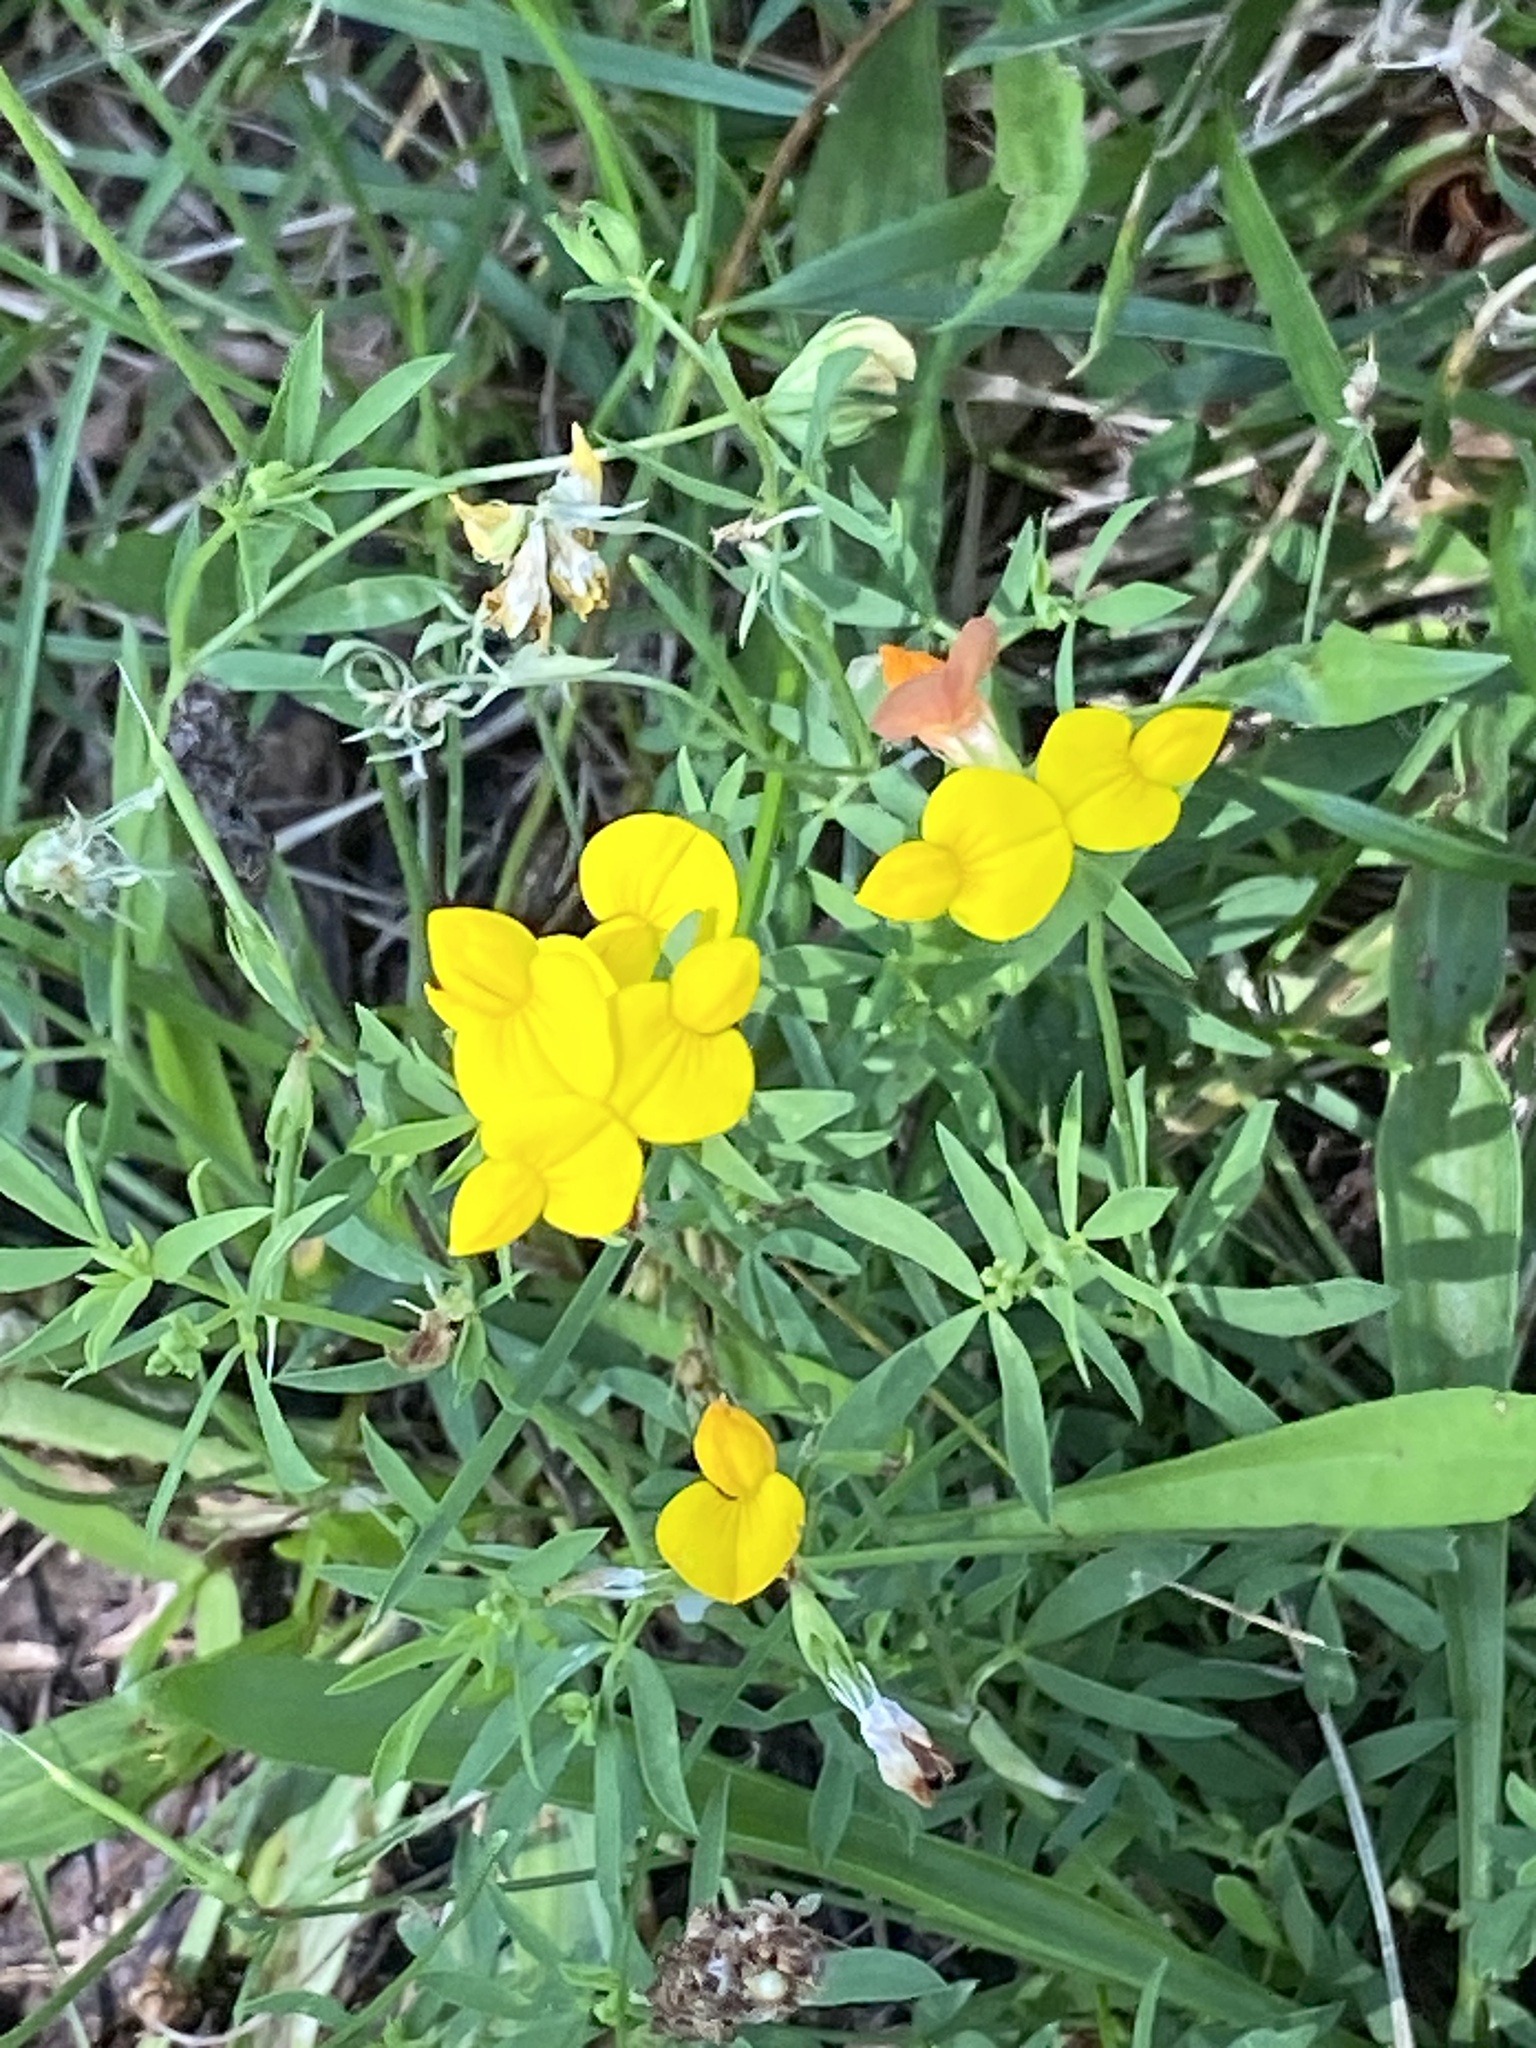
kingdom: Plantae
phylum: Tracheophyta
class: Magnoliopsida
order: Fabales
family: Fabaceae
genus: Lotus
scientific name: Lotus tenuis
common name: Narrow-leaved bird's-foot-trefoil
